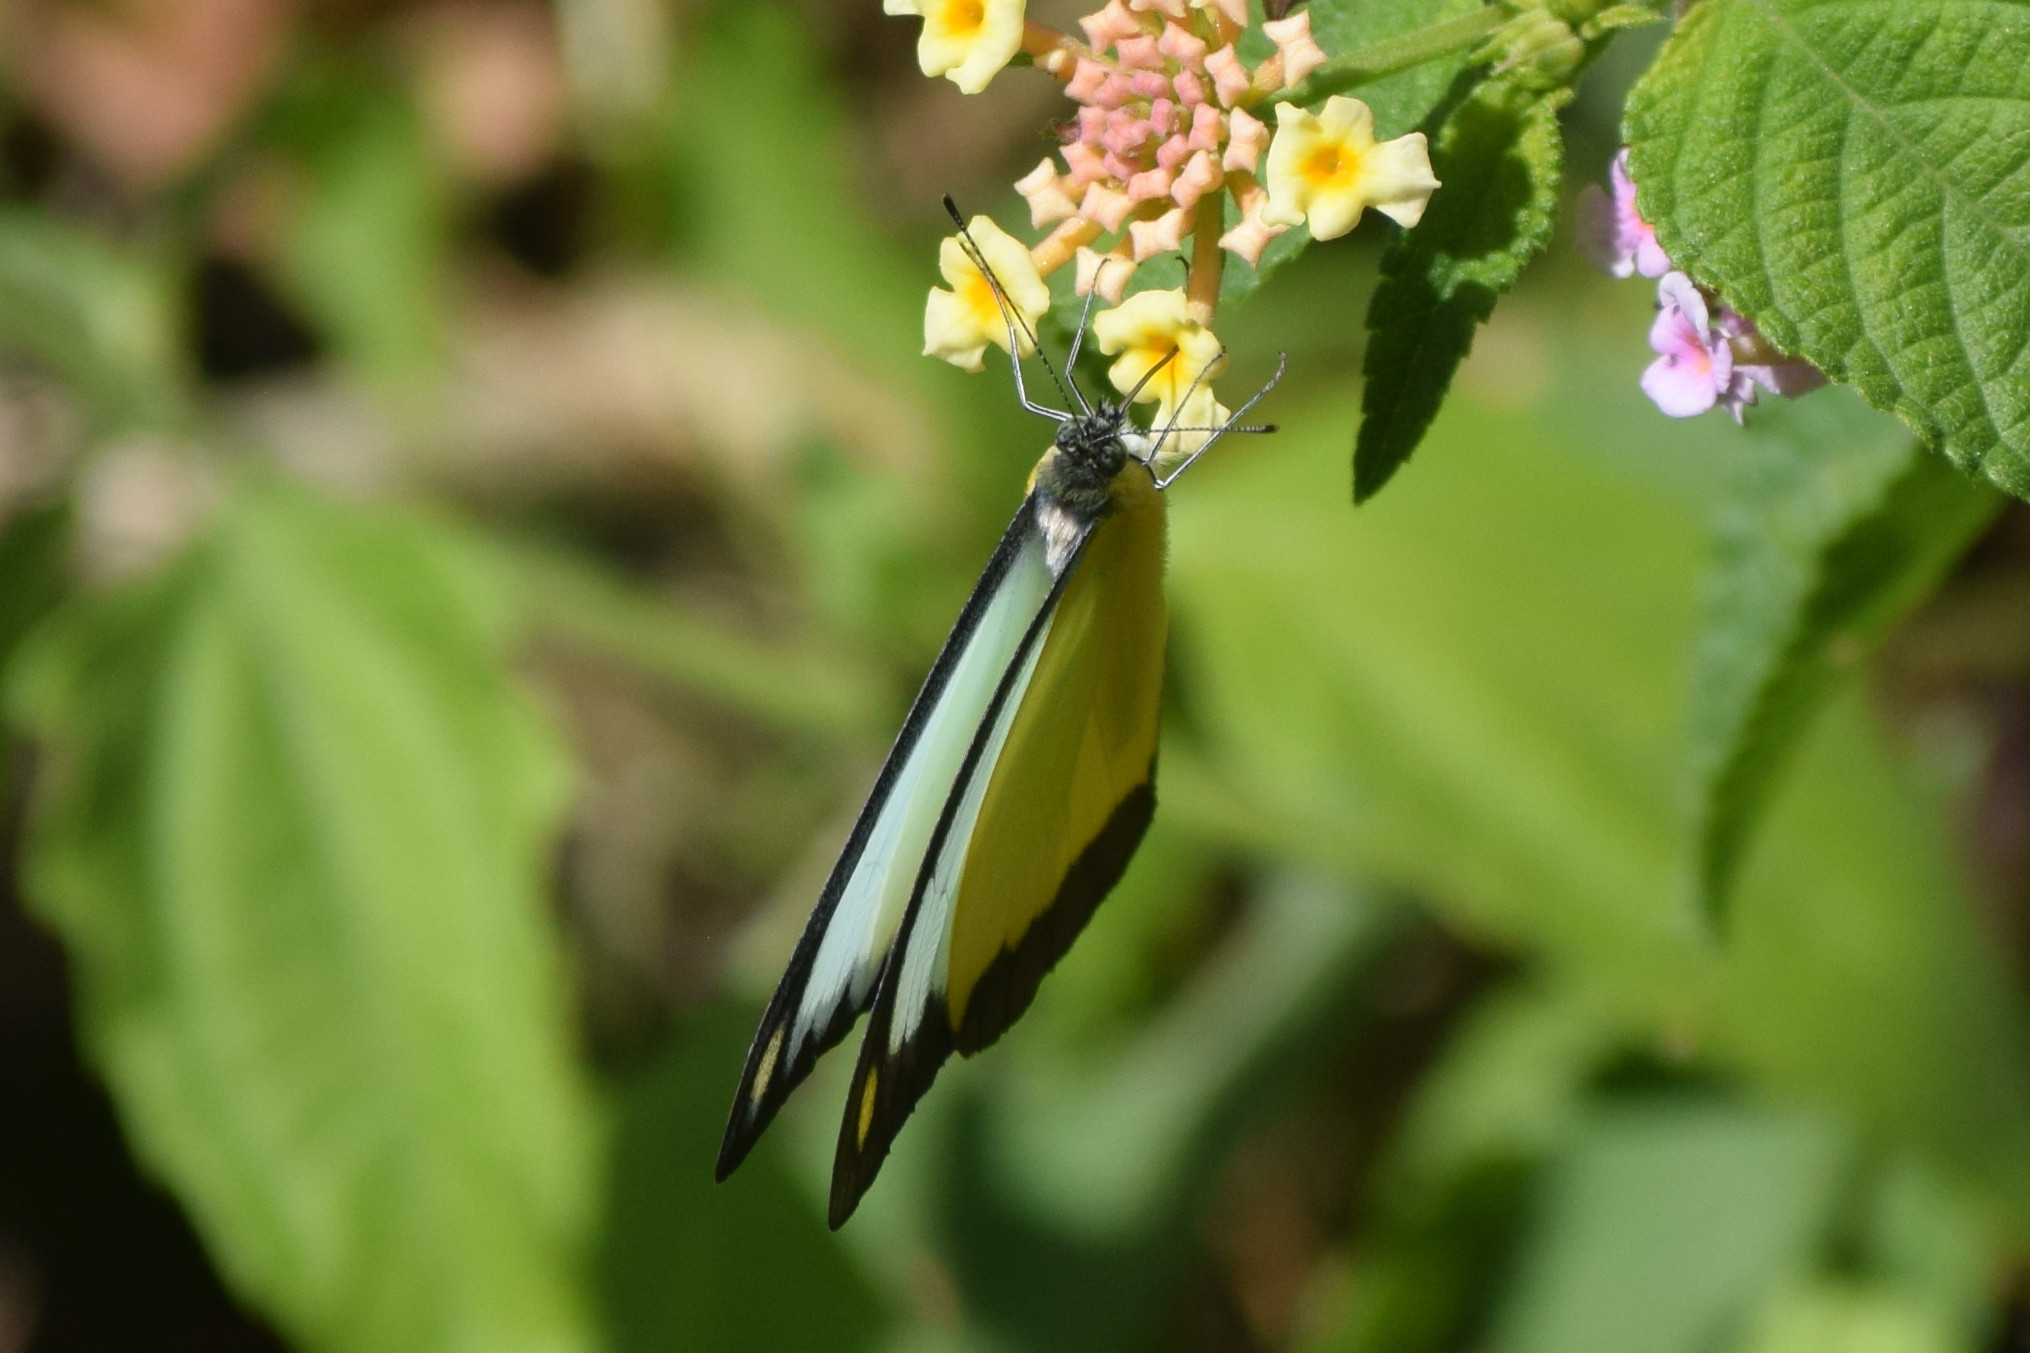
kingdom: Animalia
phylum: Arthropoda
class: Insecta
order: Lepidoptera
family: Pieridae
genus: Appias
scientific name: Appias lyncida
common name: Chocolate albatross
